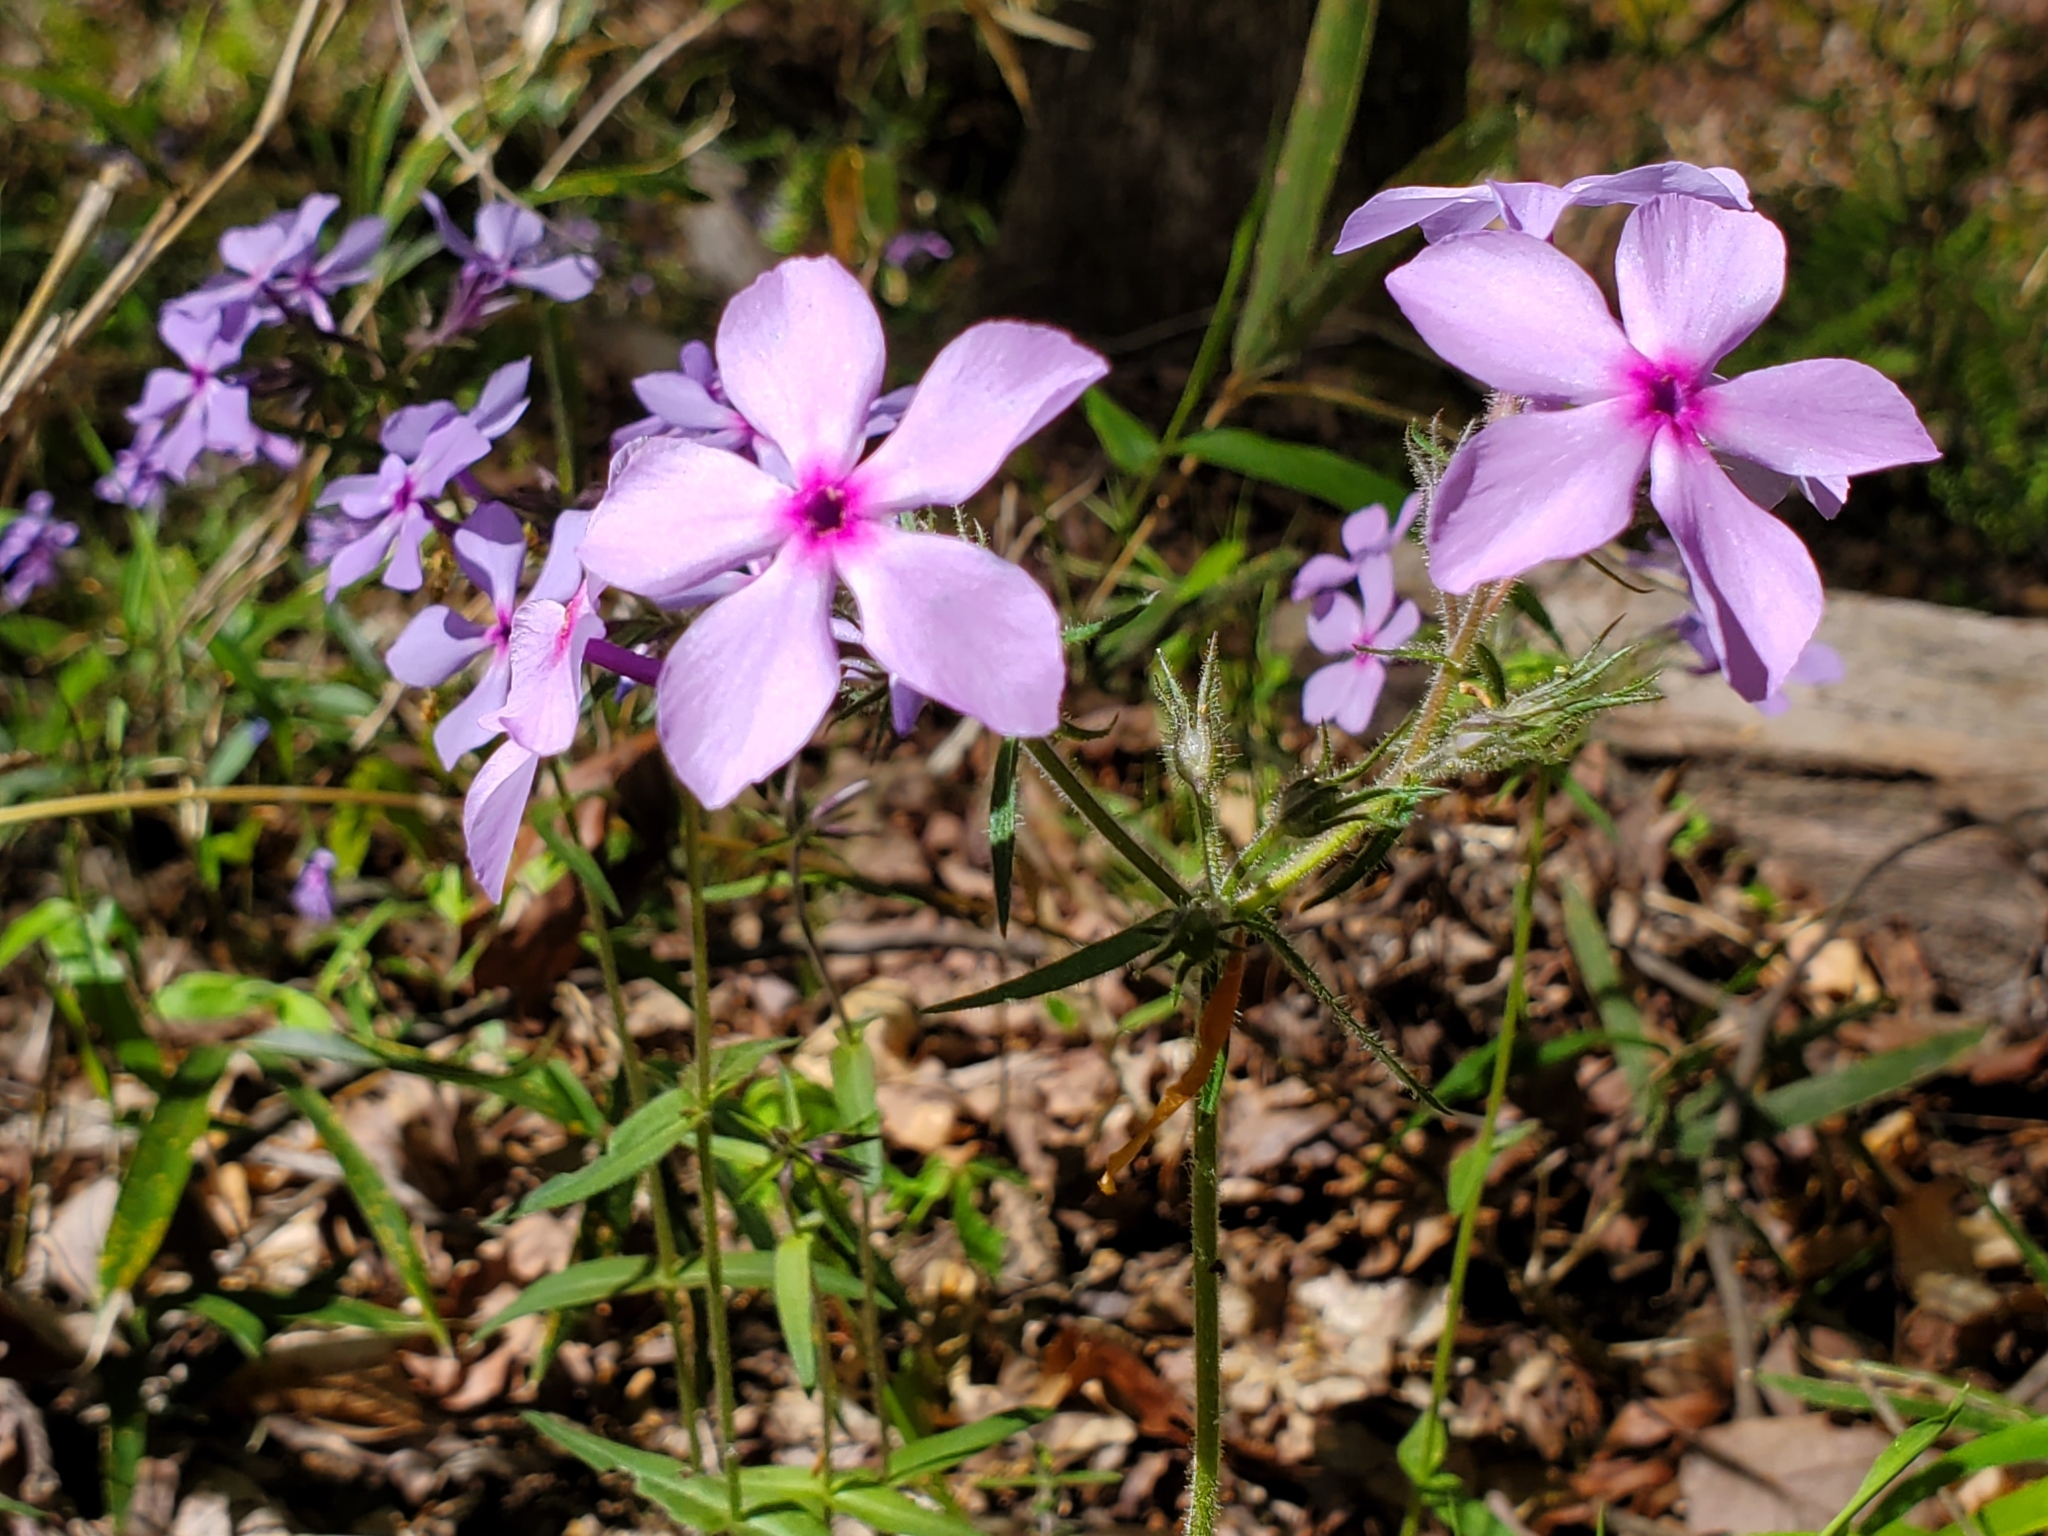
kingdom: Plantae
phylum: Tracheophyta
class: Magnoliopsida
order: Ericales
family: Polemoniaceae
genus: Phlox
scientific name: Phlox divaricata
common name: Blue phlox
